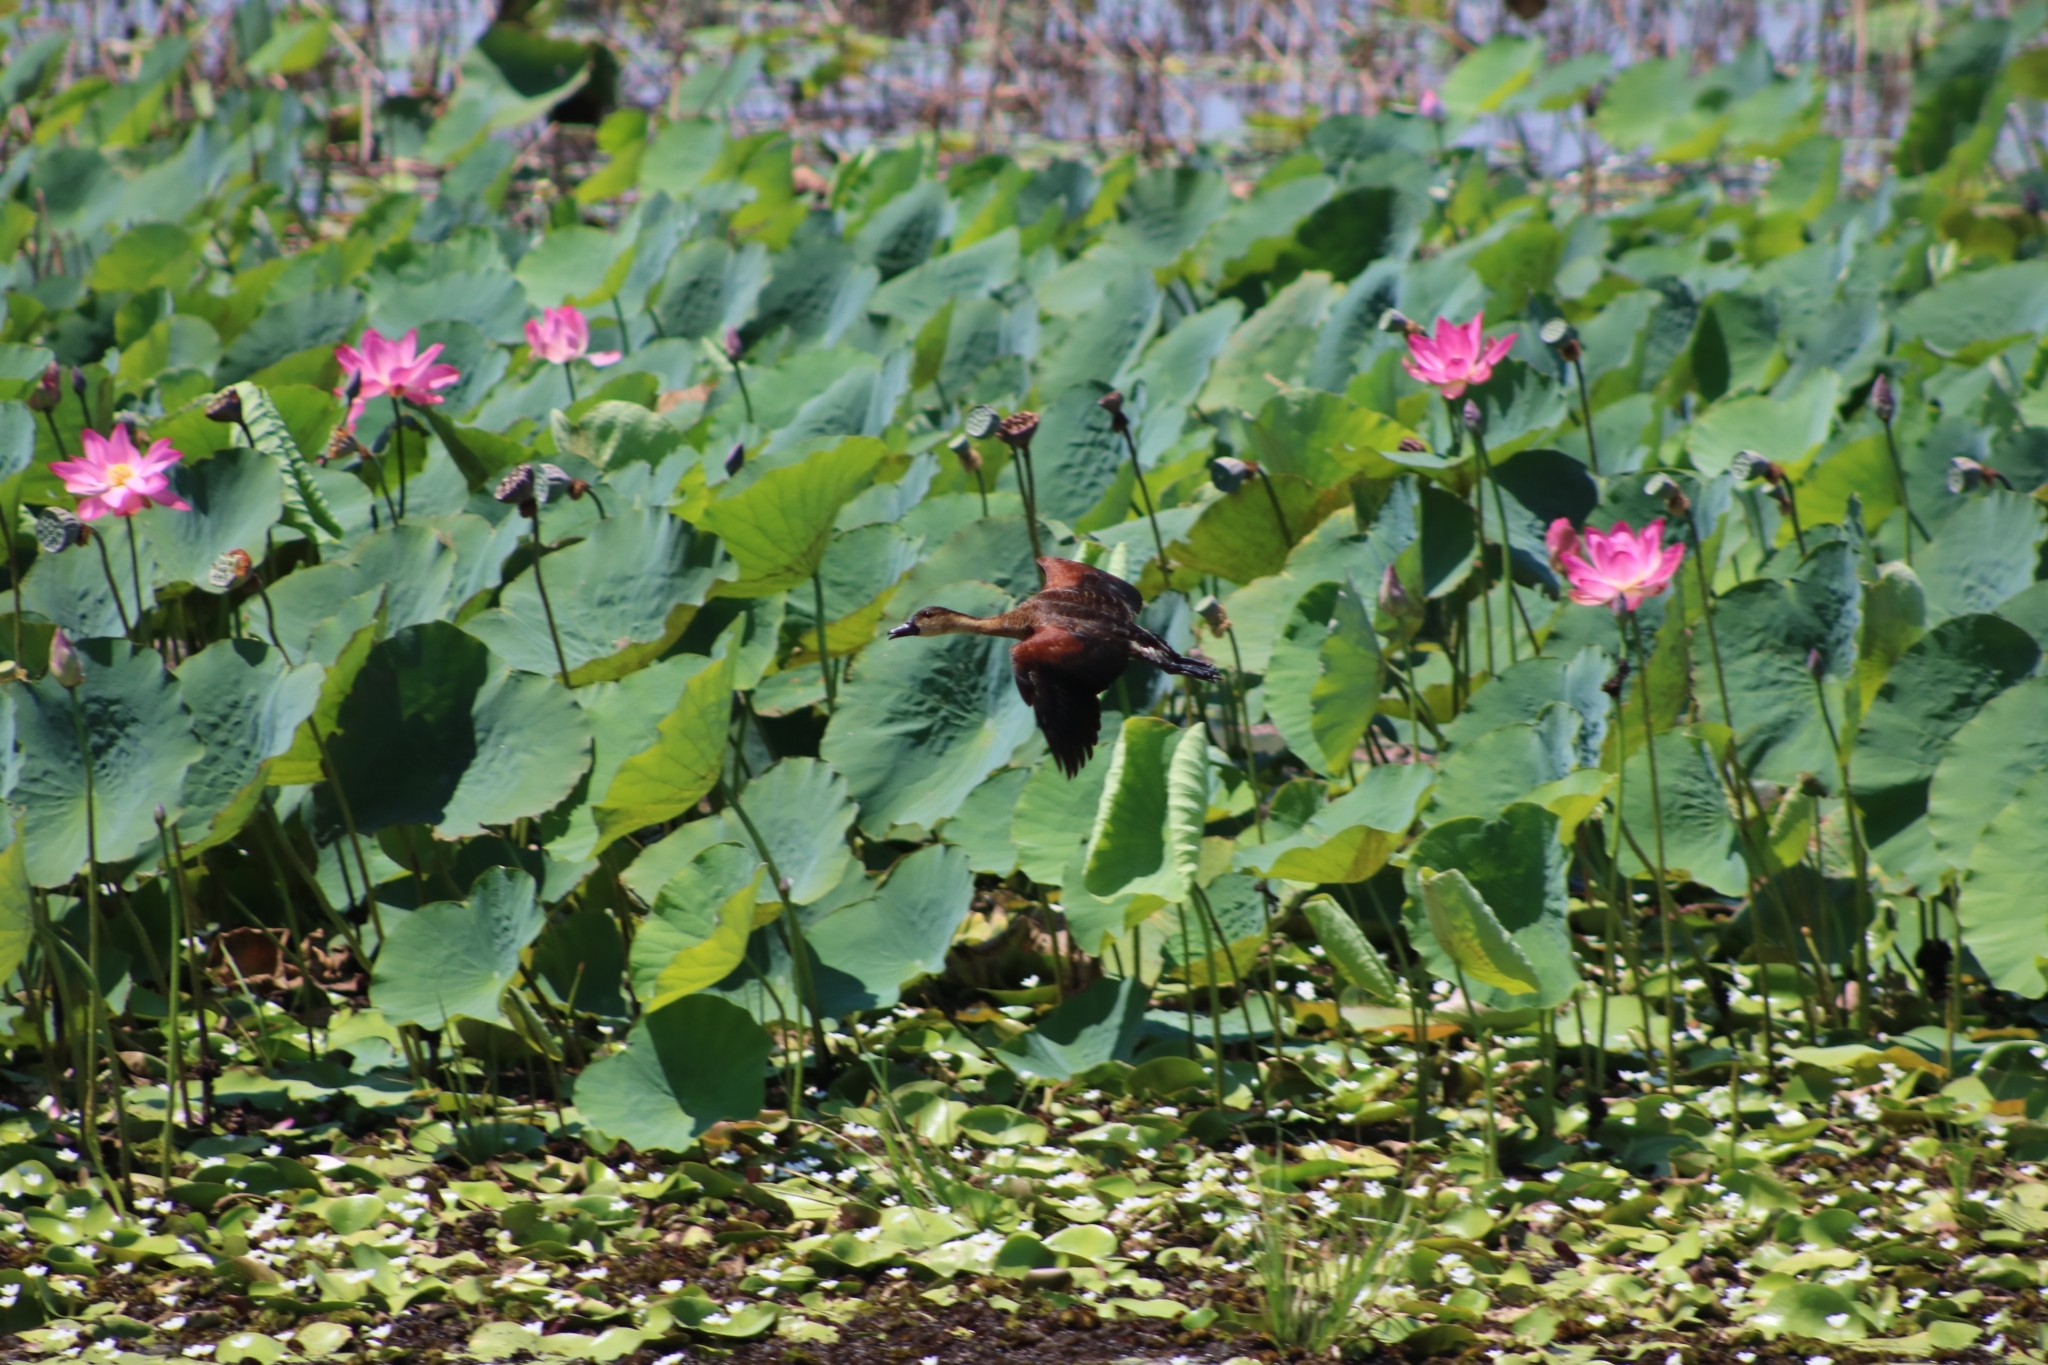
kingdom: Animalia
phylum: Chordata
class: Aves
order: Anseriformes
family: Anatidae
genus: Dendrocygna
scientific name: Dendrocygna arcuata
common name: Wandering whistling-duck
